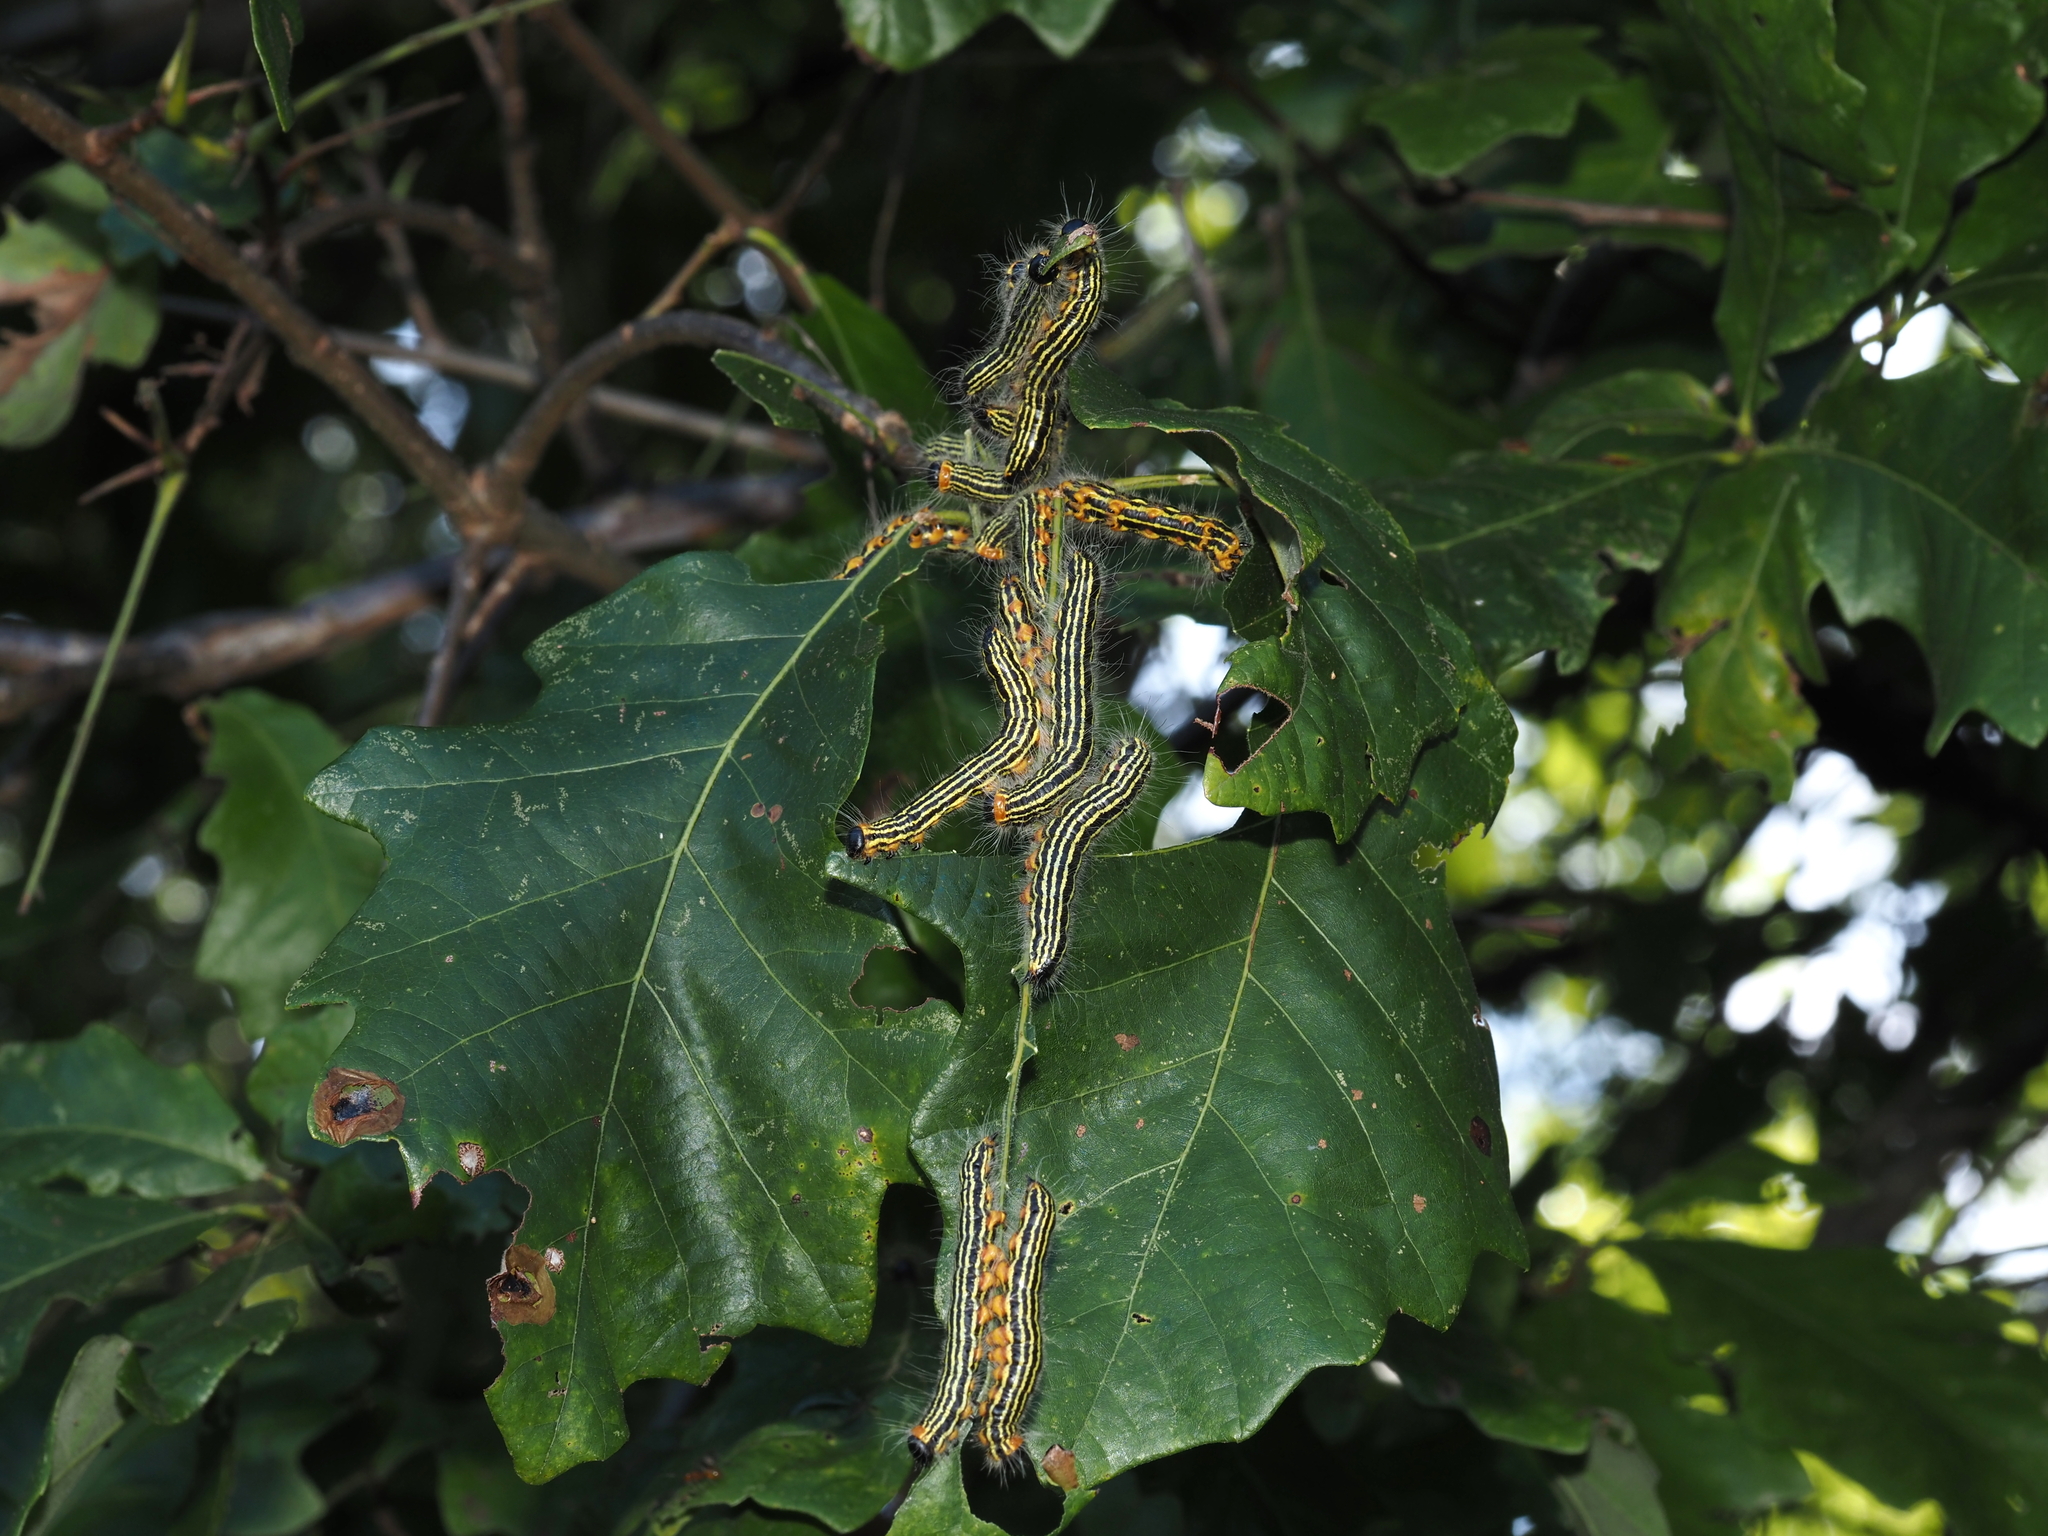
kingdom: Animalia
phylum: Arthropoda
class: Insecta
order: Lepidoptera
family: Notodontidae
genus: Datana
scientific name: Datana ministra
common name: Yellow-necked caterpillar moth
